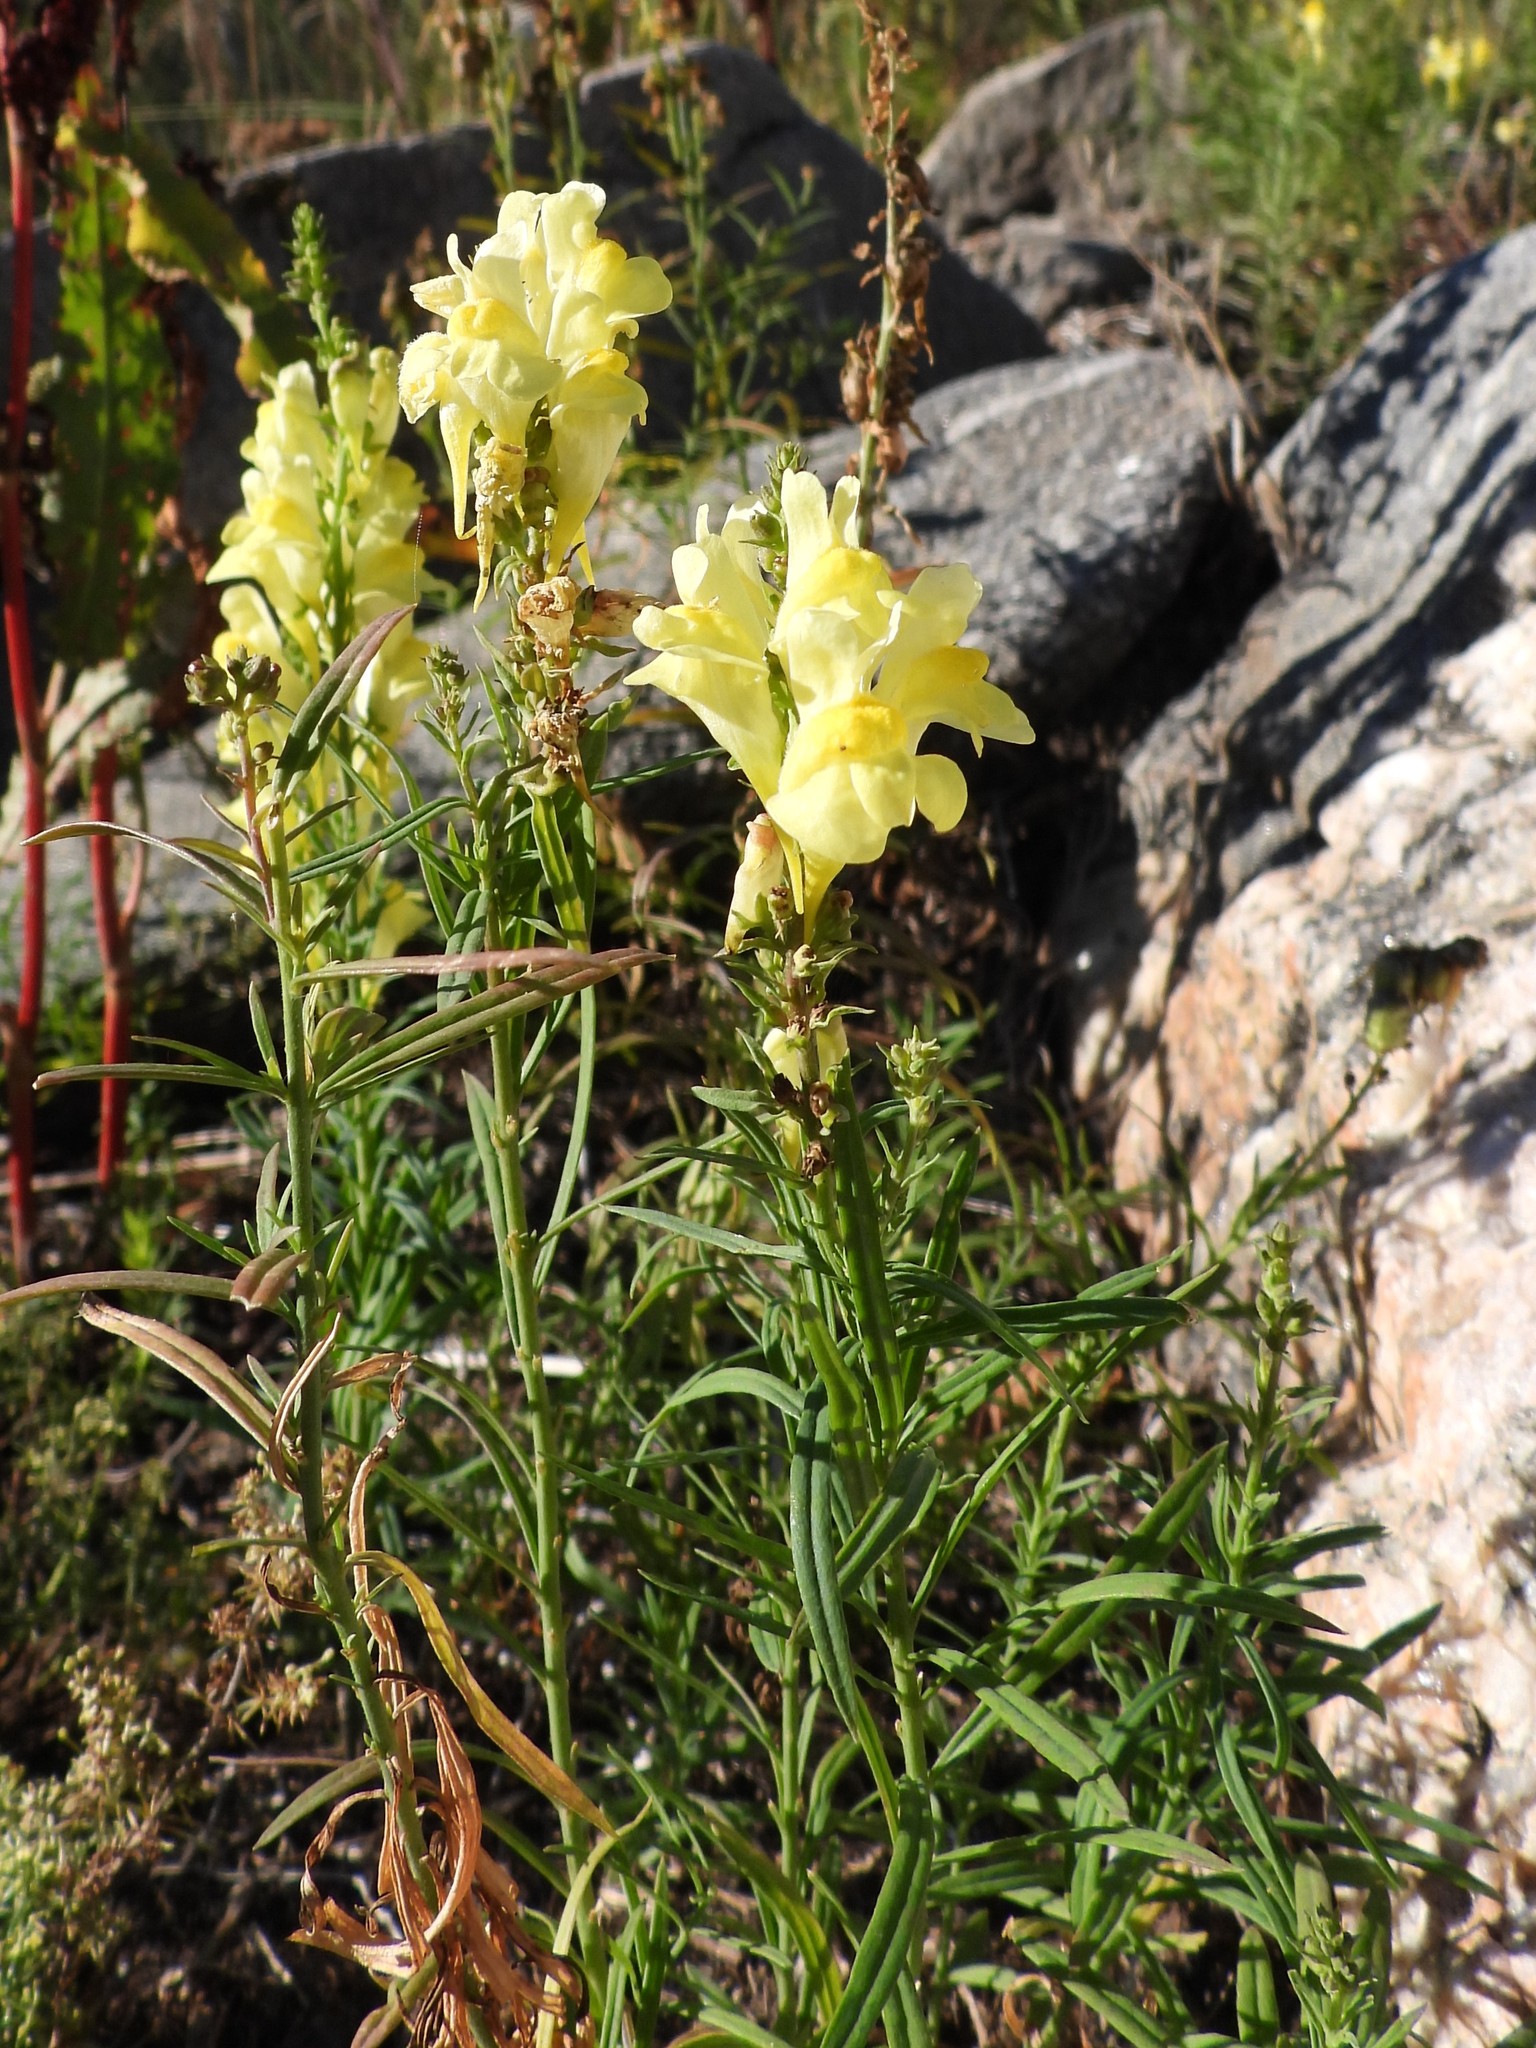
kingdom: Plantae
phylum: Tracheophyta
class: Magnoliopsida
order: Lamiales
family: Plantaginaceae
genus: Linaria
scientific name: Linaria vulgaris
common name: Butter and eggs
